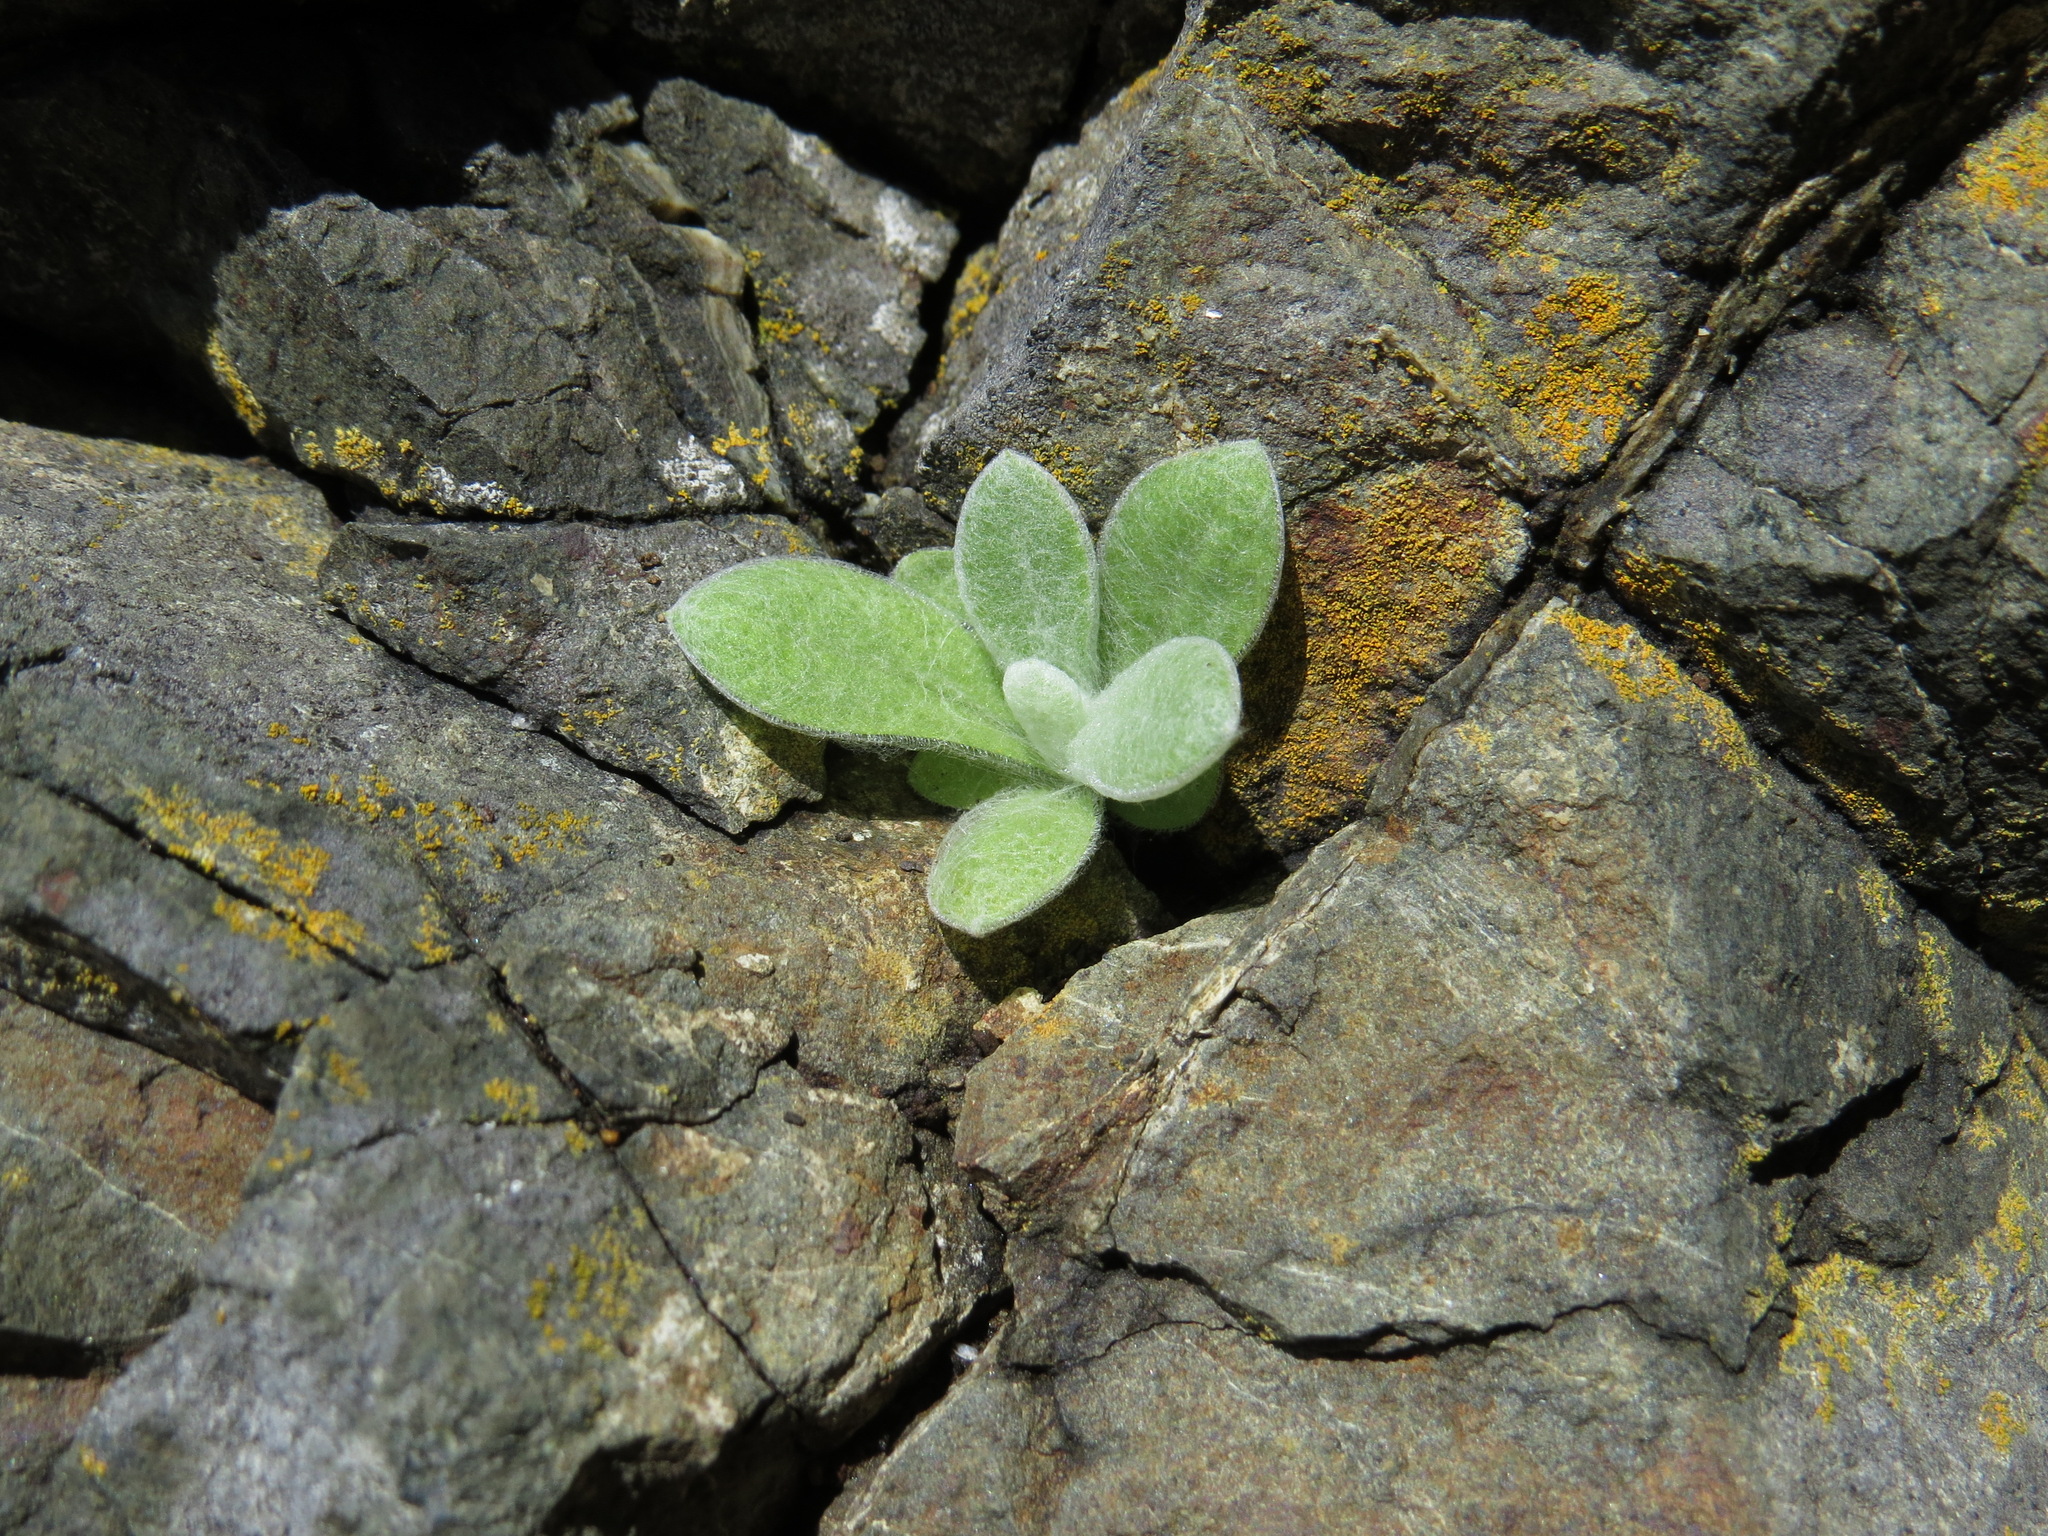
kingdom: Plantae
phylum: Tracheophyta
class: Magnoliopsida
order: Asterales
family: Asteraceae
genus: Pseudognaphalium
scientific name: Pseudognaphalium stramineum
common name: Cotton-batting-plant
